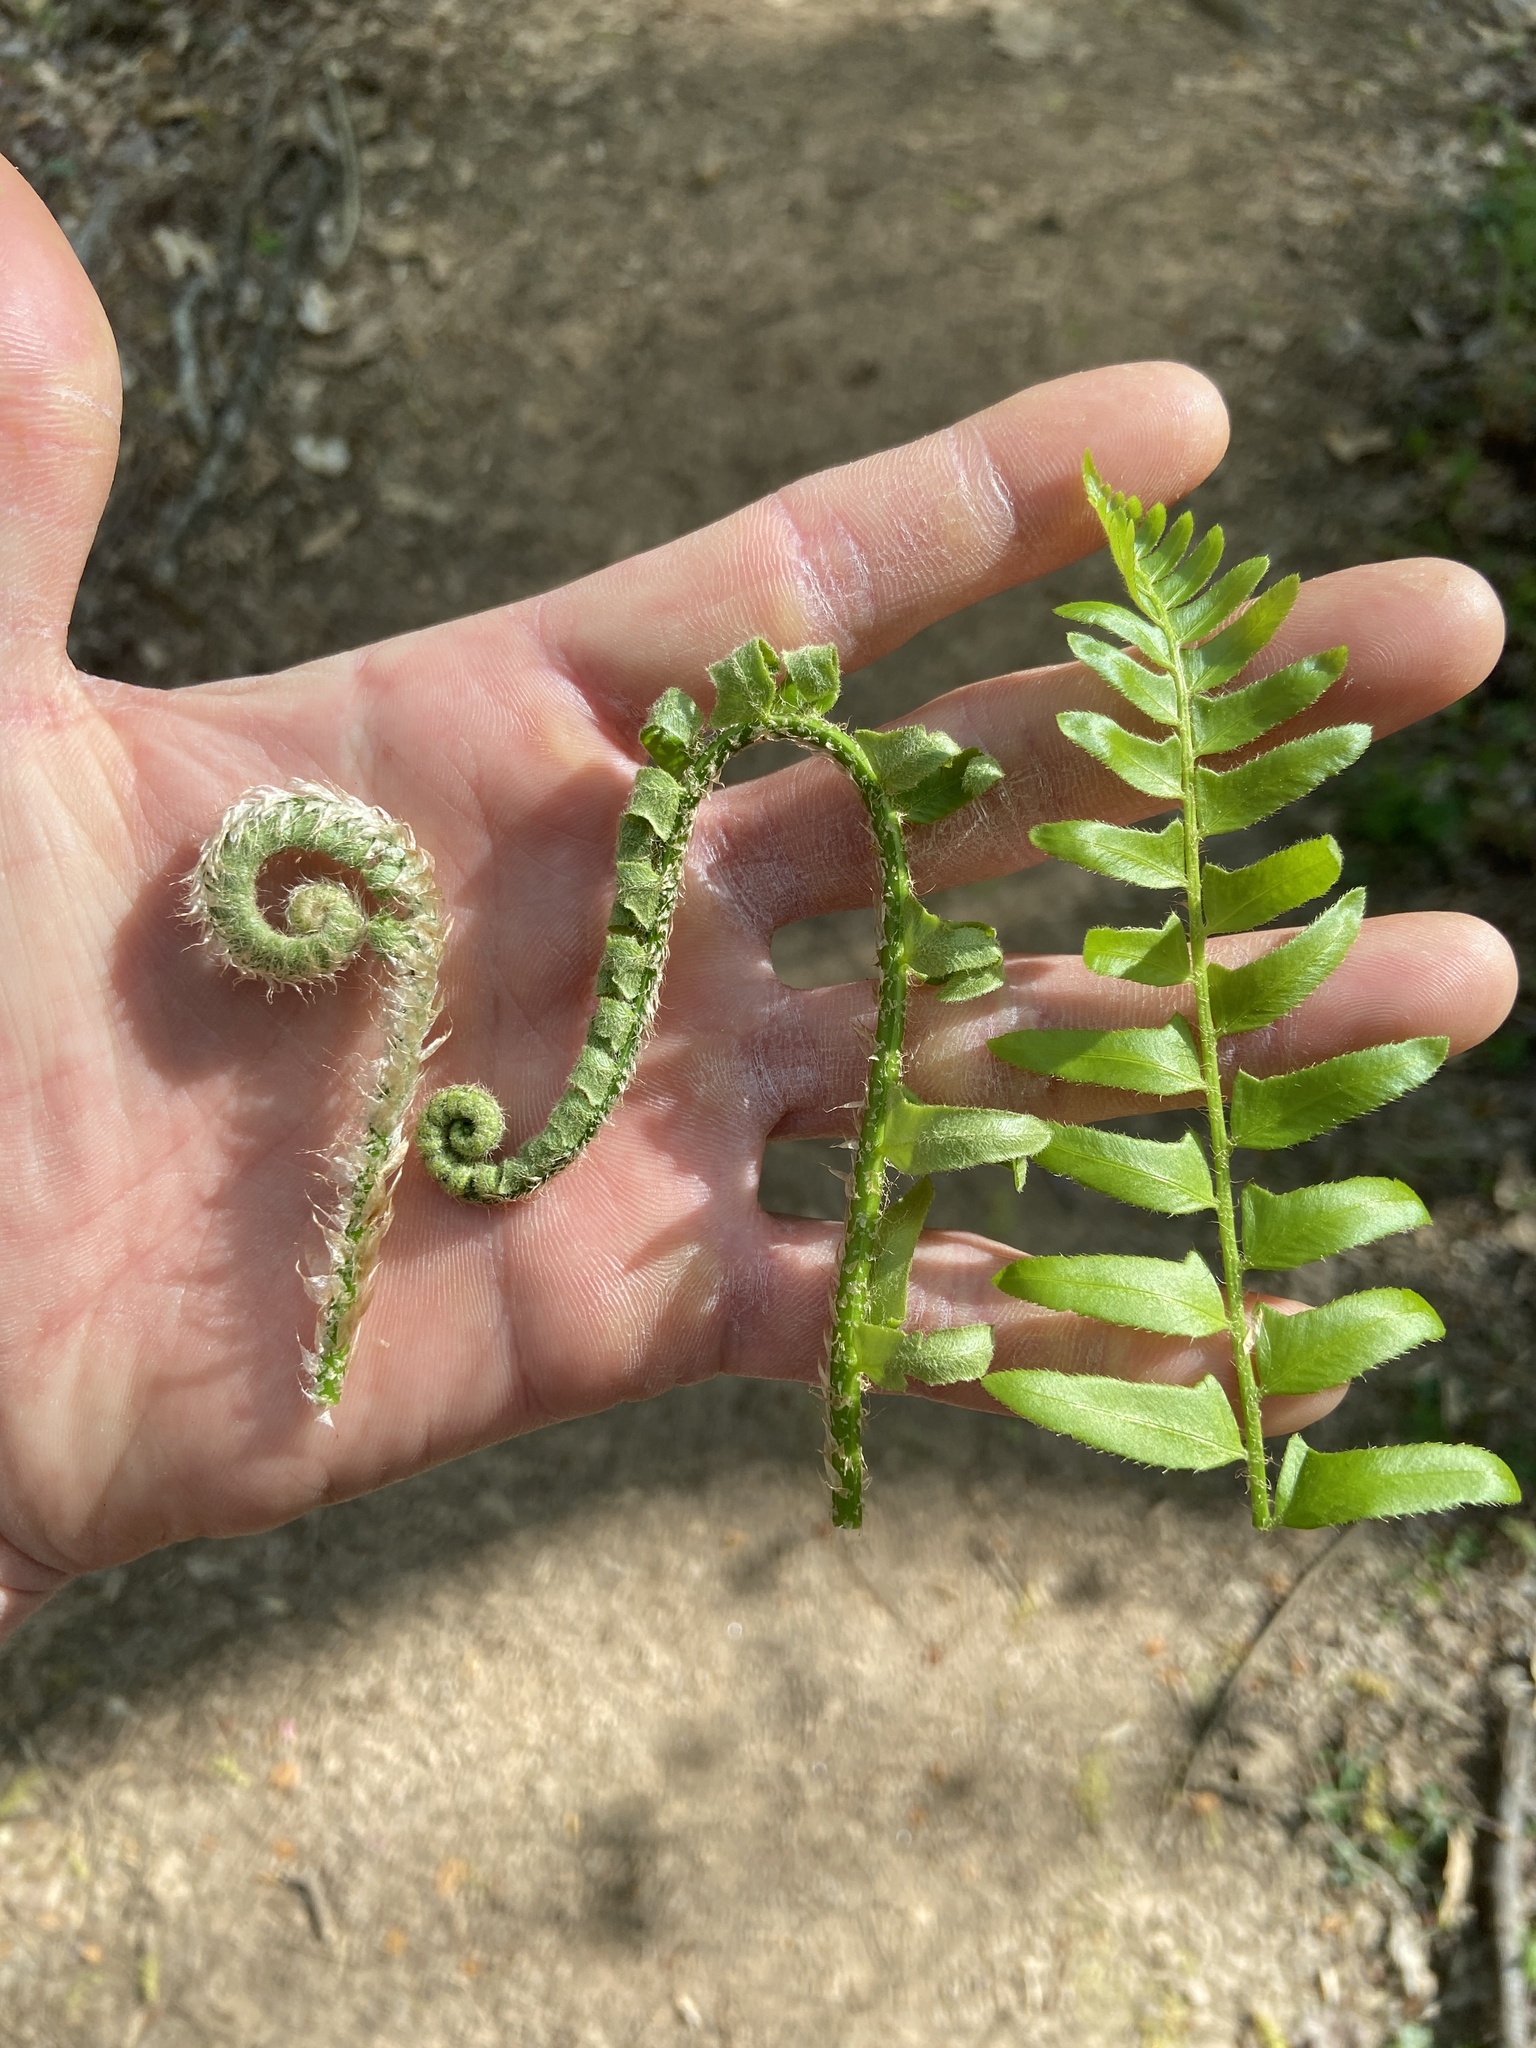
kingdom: Plantae
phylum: Tracheophyta
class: Polypodiopsida
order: Polypodiales
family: Dryopteridaceae
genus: Polystichum
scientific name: Polystichum acrostichoides
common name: Christmas fern
